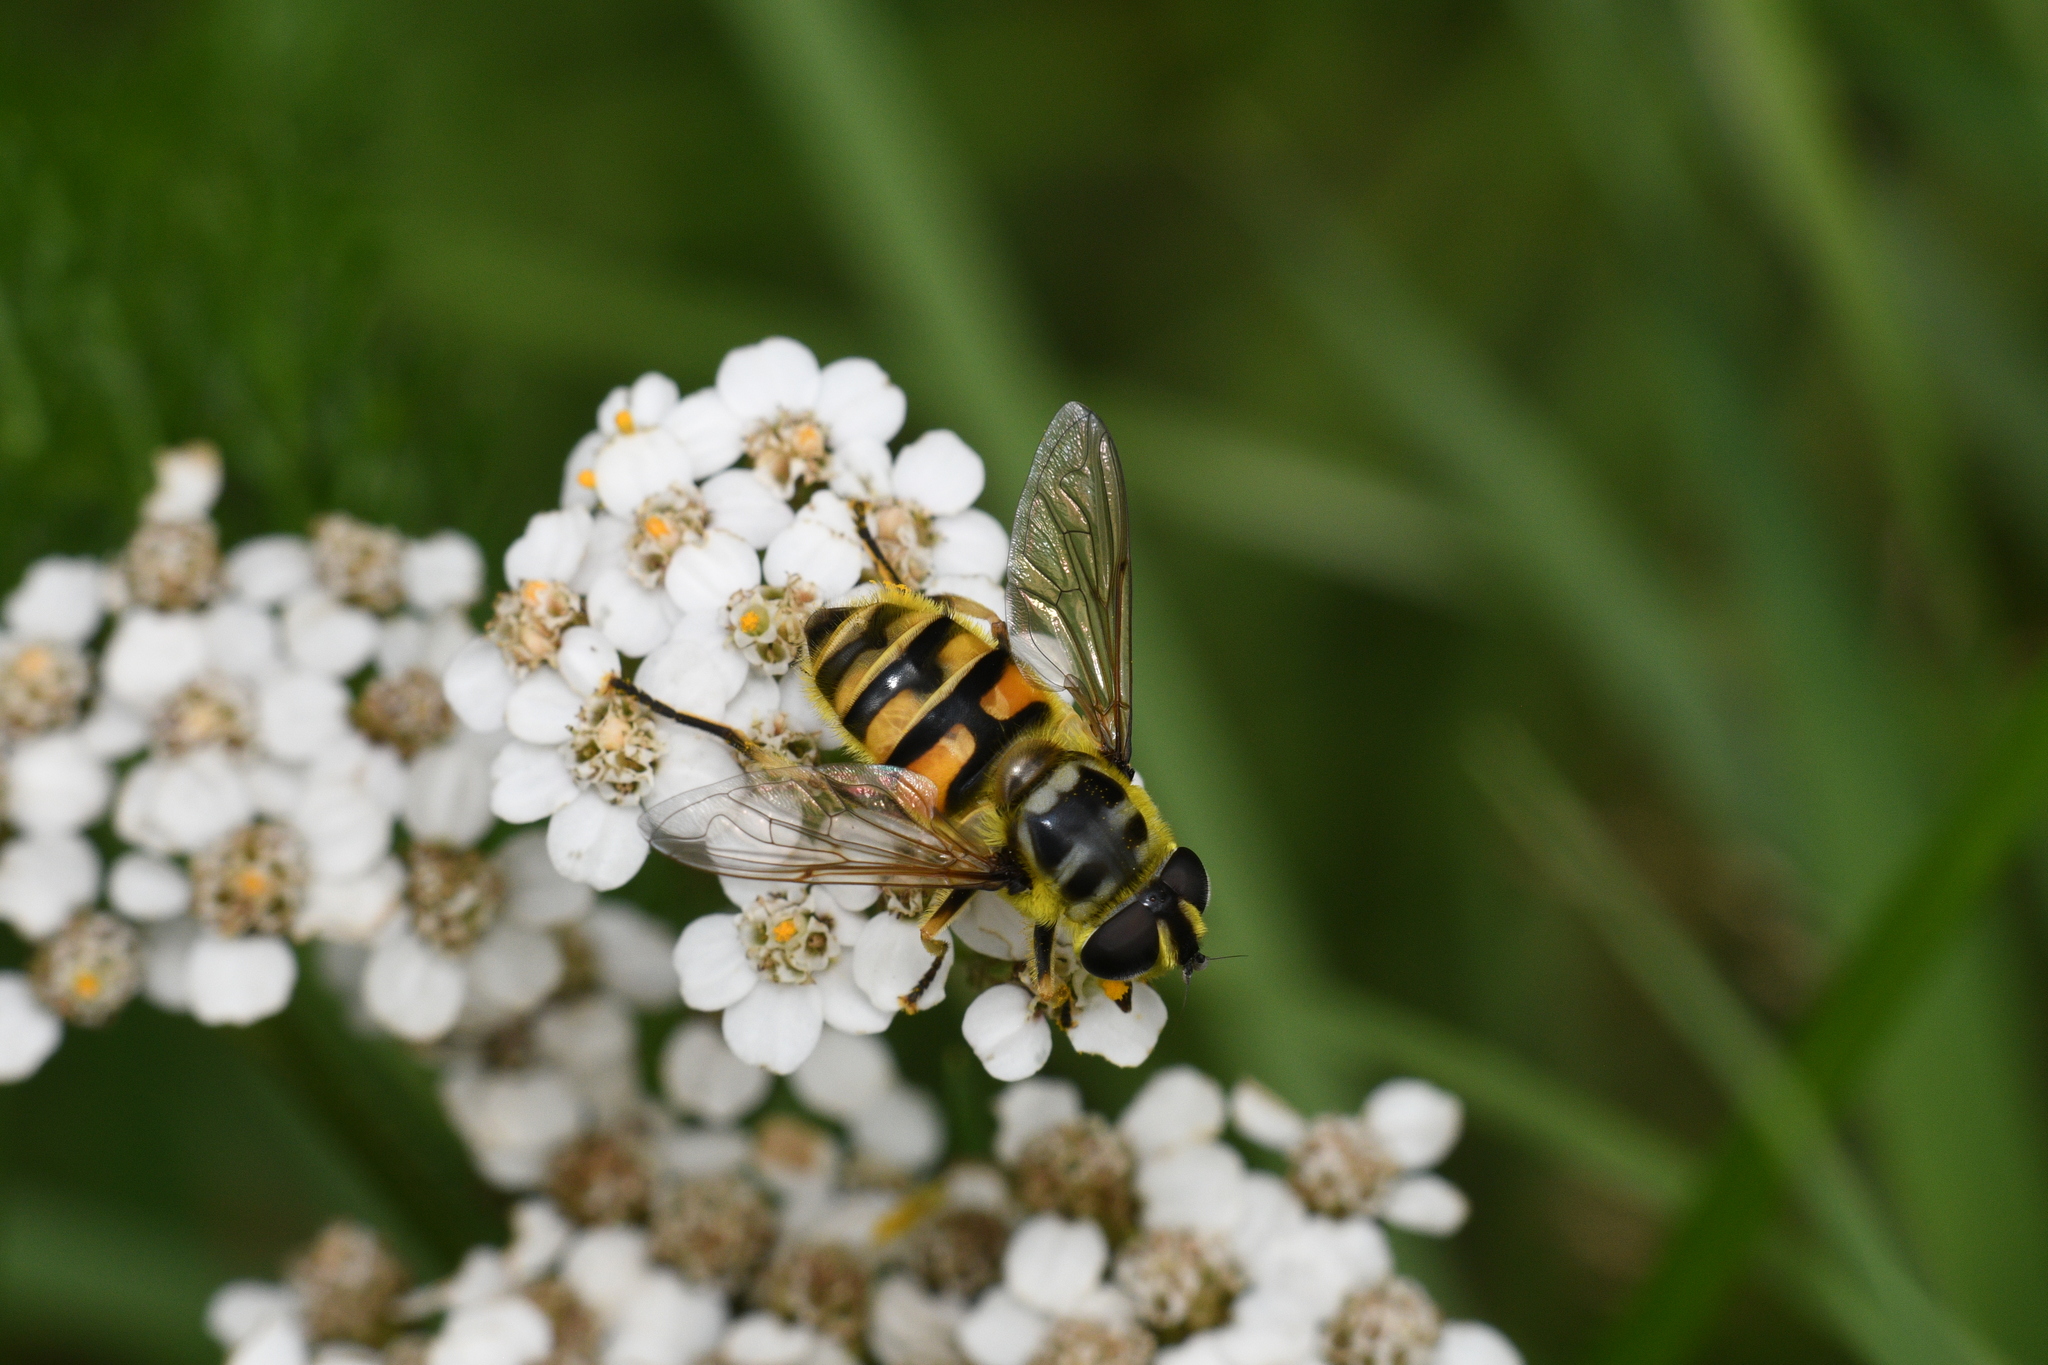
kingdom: Animalia
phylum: Arthropoda
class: Insecta
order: Diptera
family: Syrphidae
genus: Myathropa
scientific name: Myathropa florea
